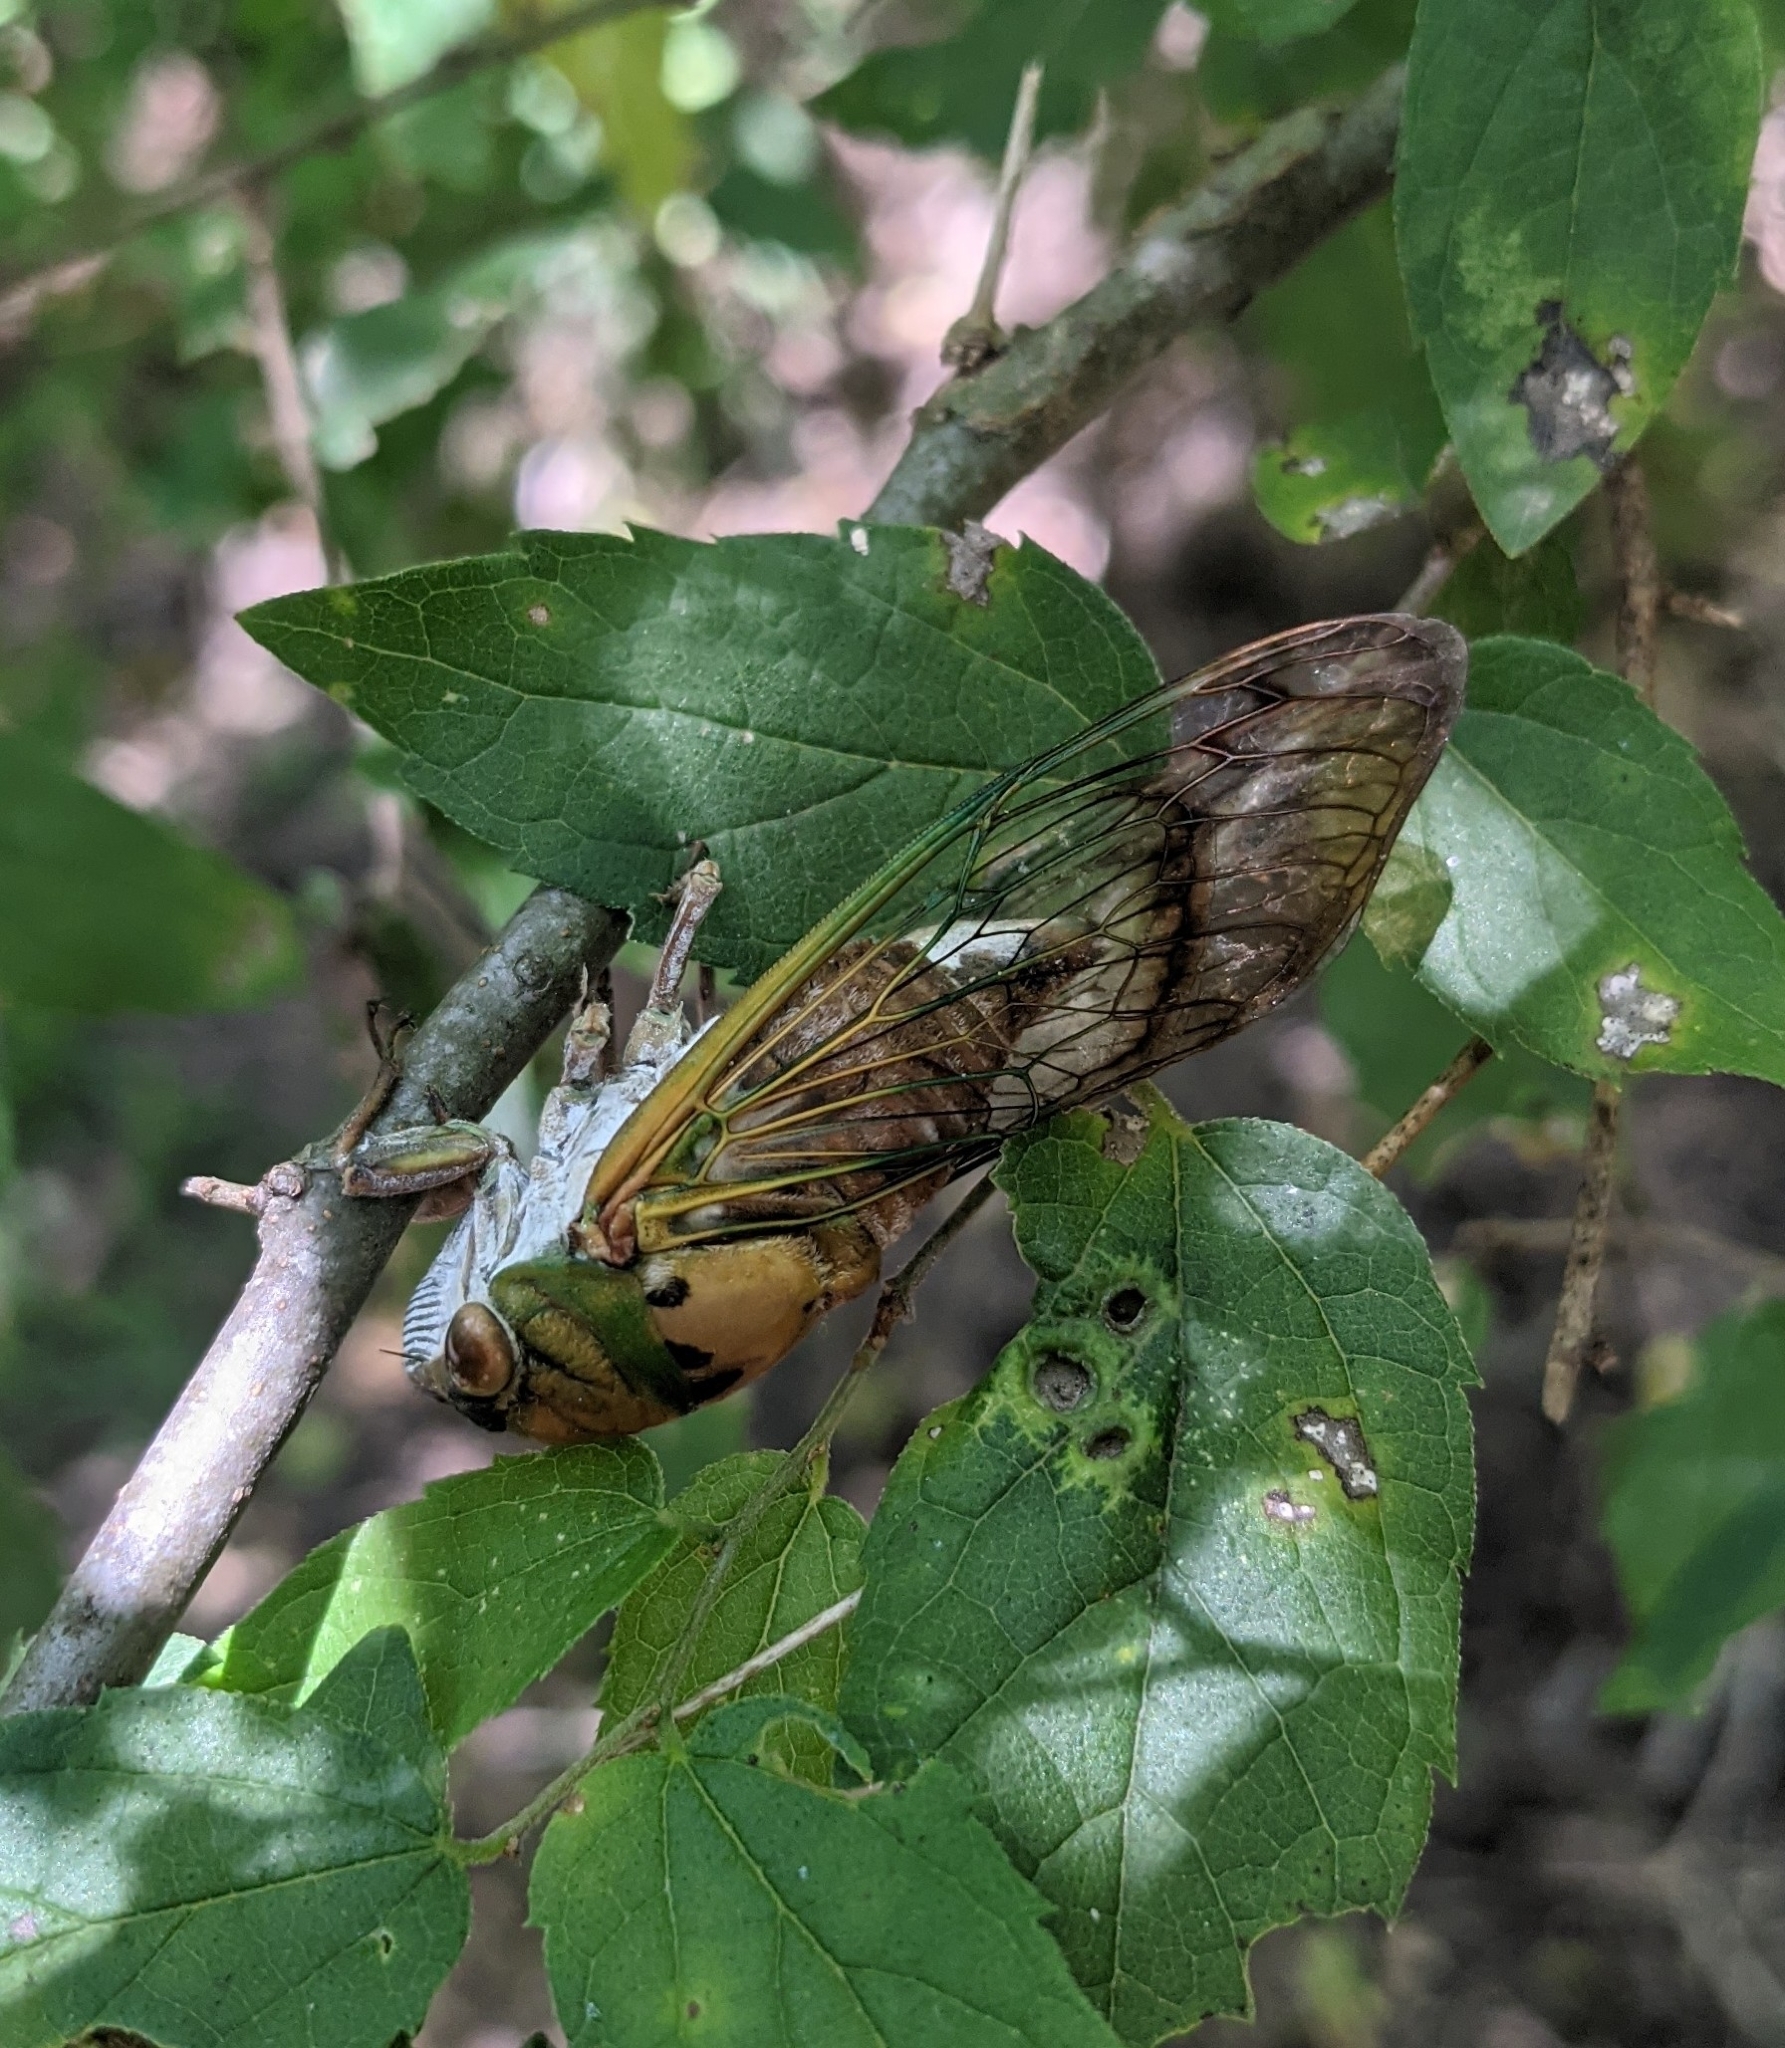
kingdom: Animalia
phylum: Arthropoda
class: Insecta
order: Hemiptera
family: Cicadidae
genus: Neotibicen
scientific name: Neotibicen superbus
